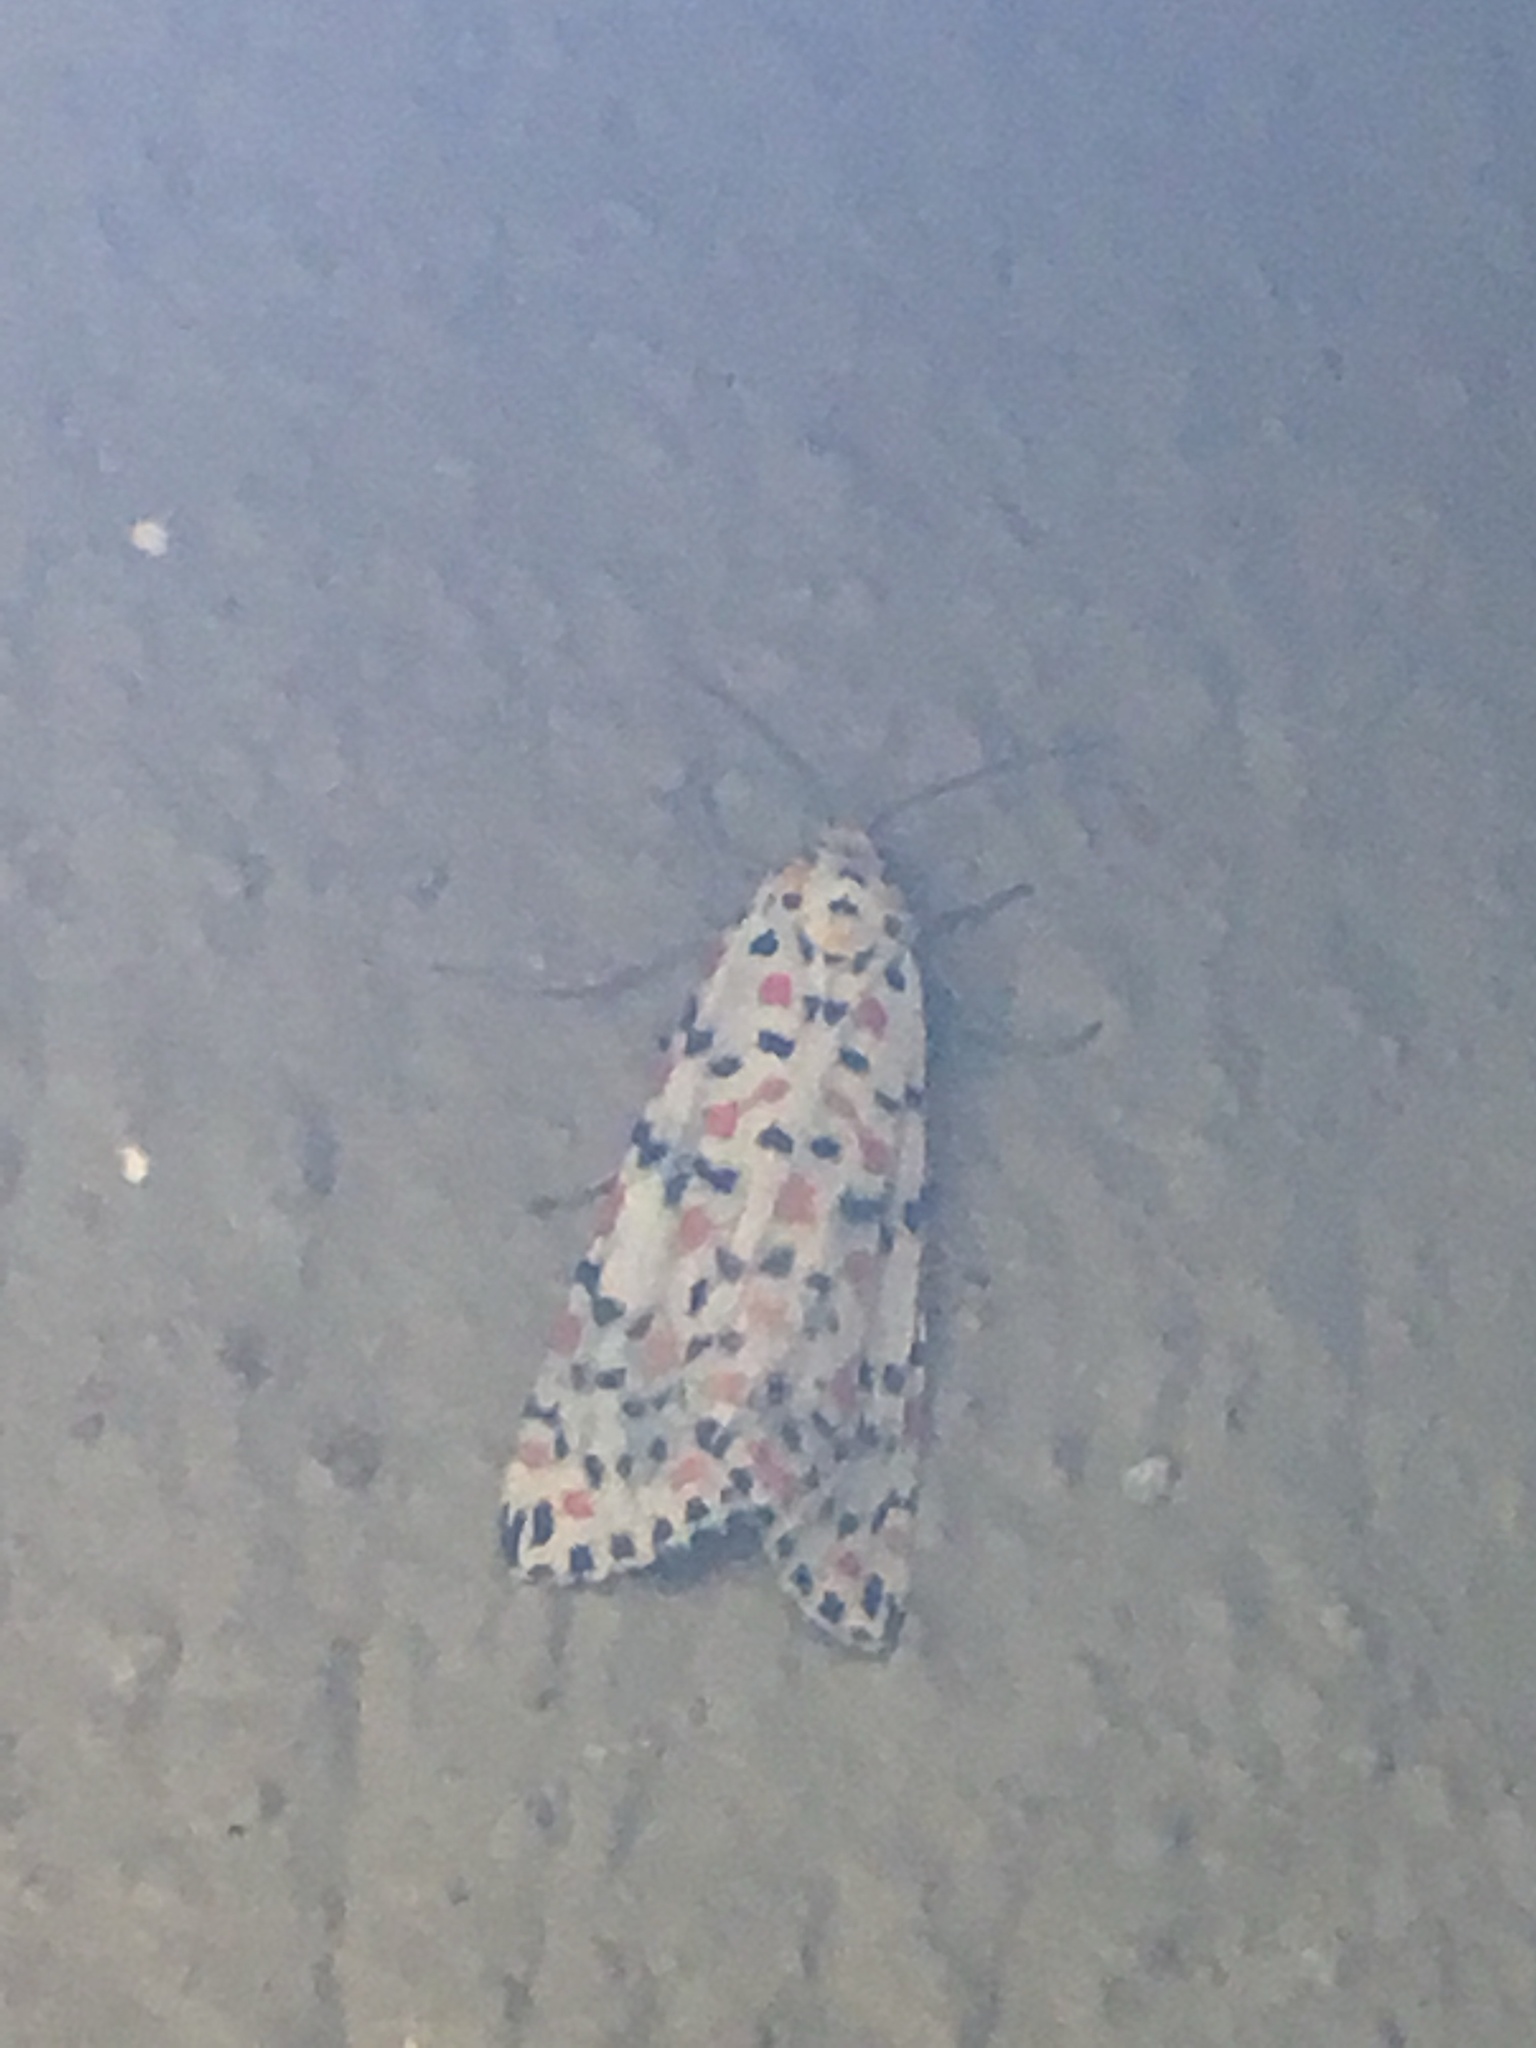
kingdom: Animalia
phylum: Arthropoda
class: Insecta
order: Lepidoptera
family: Erebidae
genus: Utetheisa
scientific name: Utetheisa pulchella
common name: Crimson speckled
